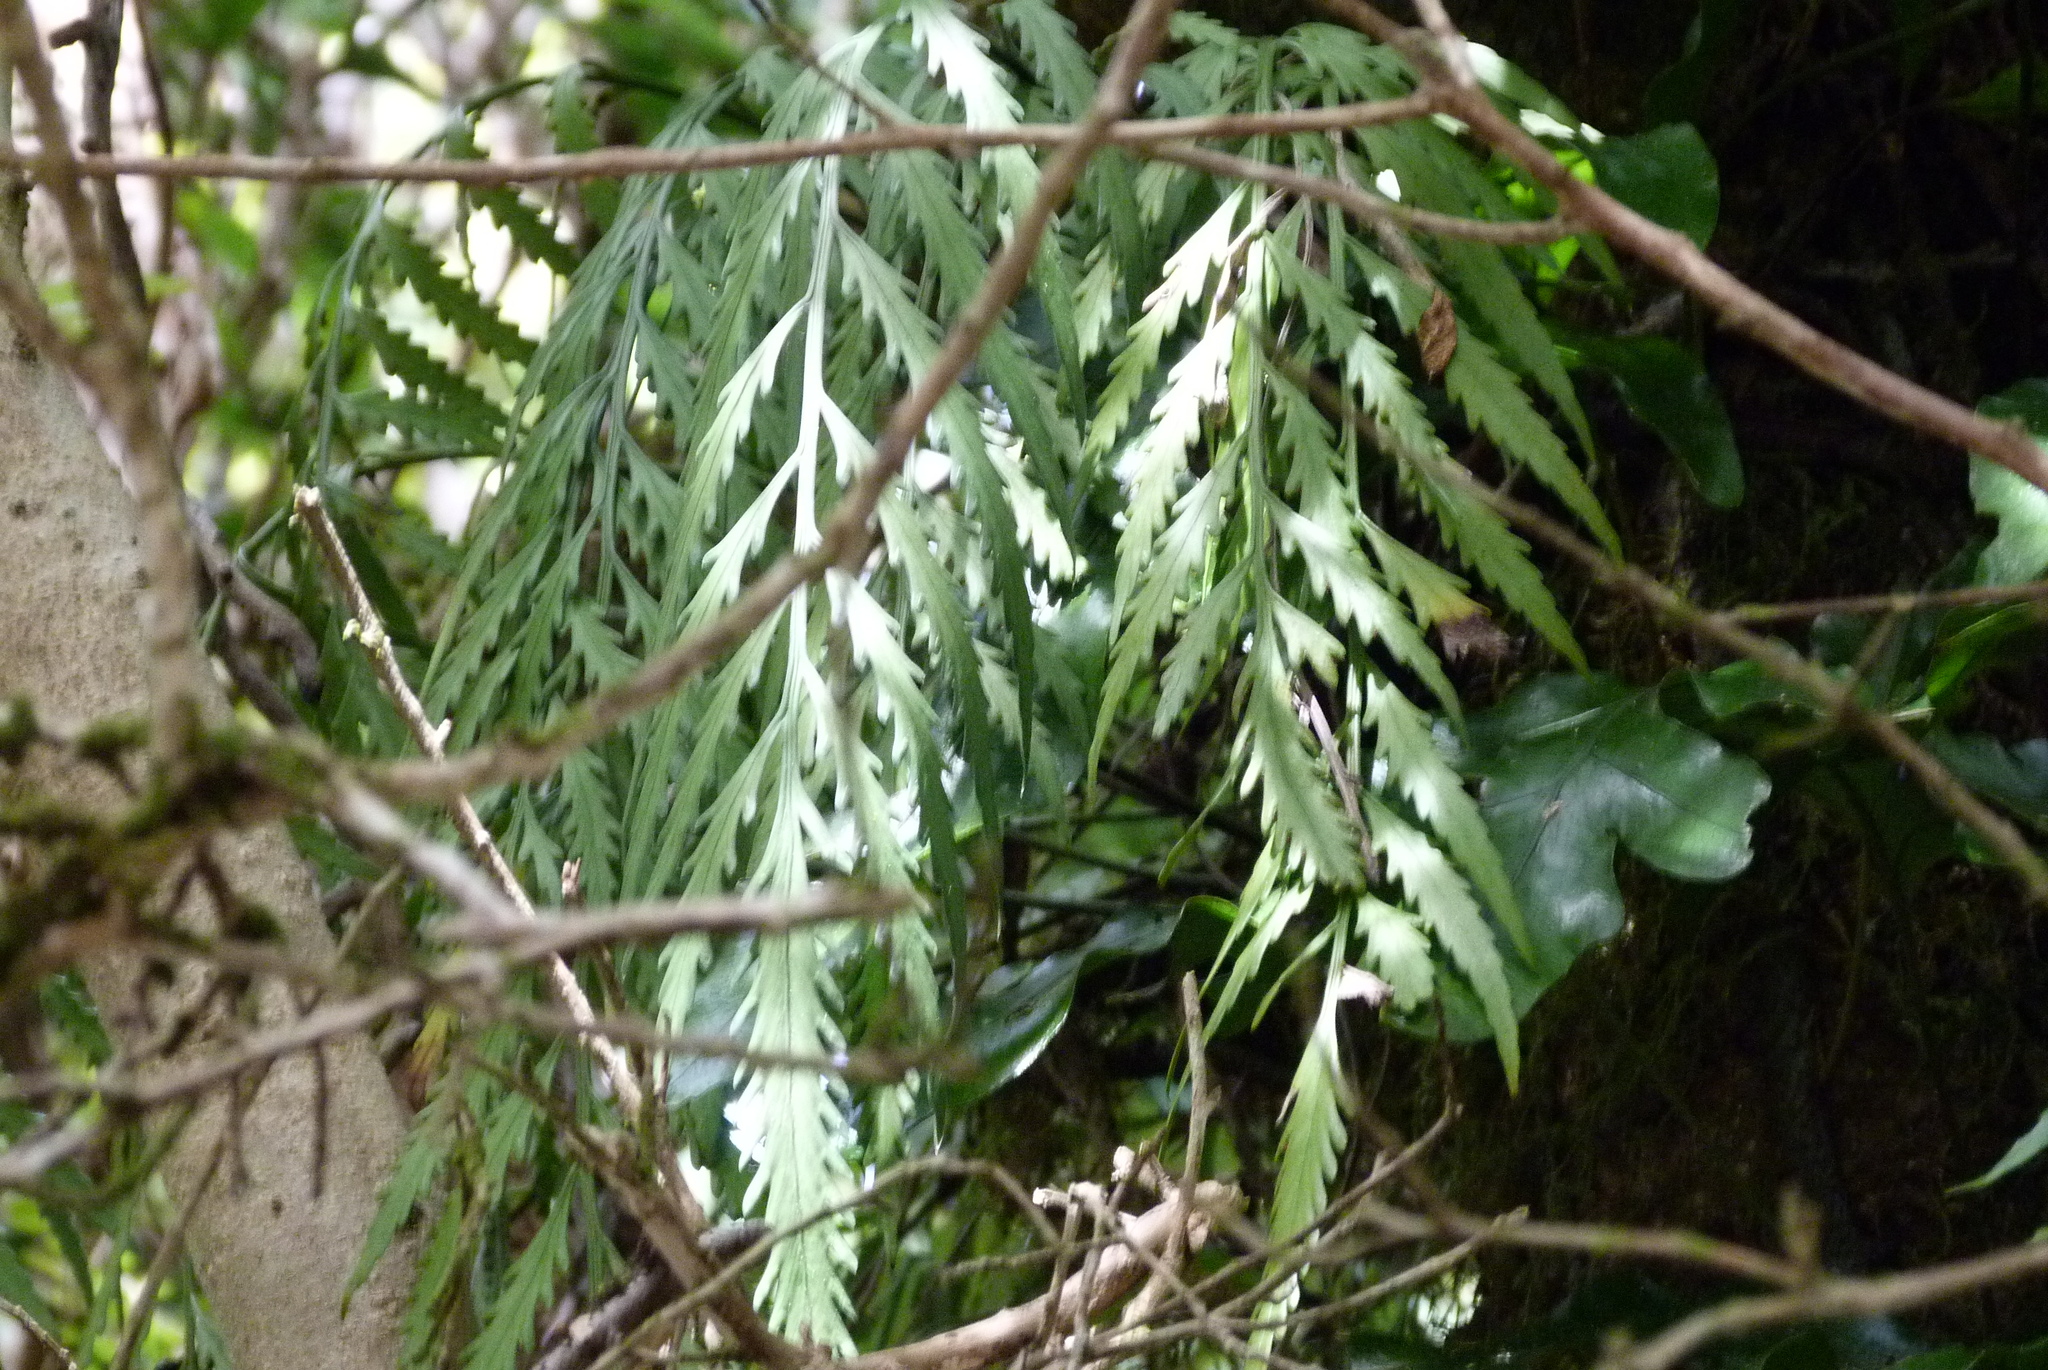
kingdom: Plantae
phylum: Tracheophyta
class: Polypodiopsida
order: Polypodiales
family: Aspleniaceae
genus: Asplenium
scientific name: Asplenium flaccidum
